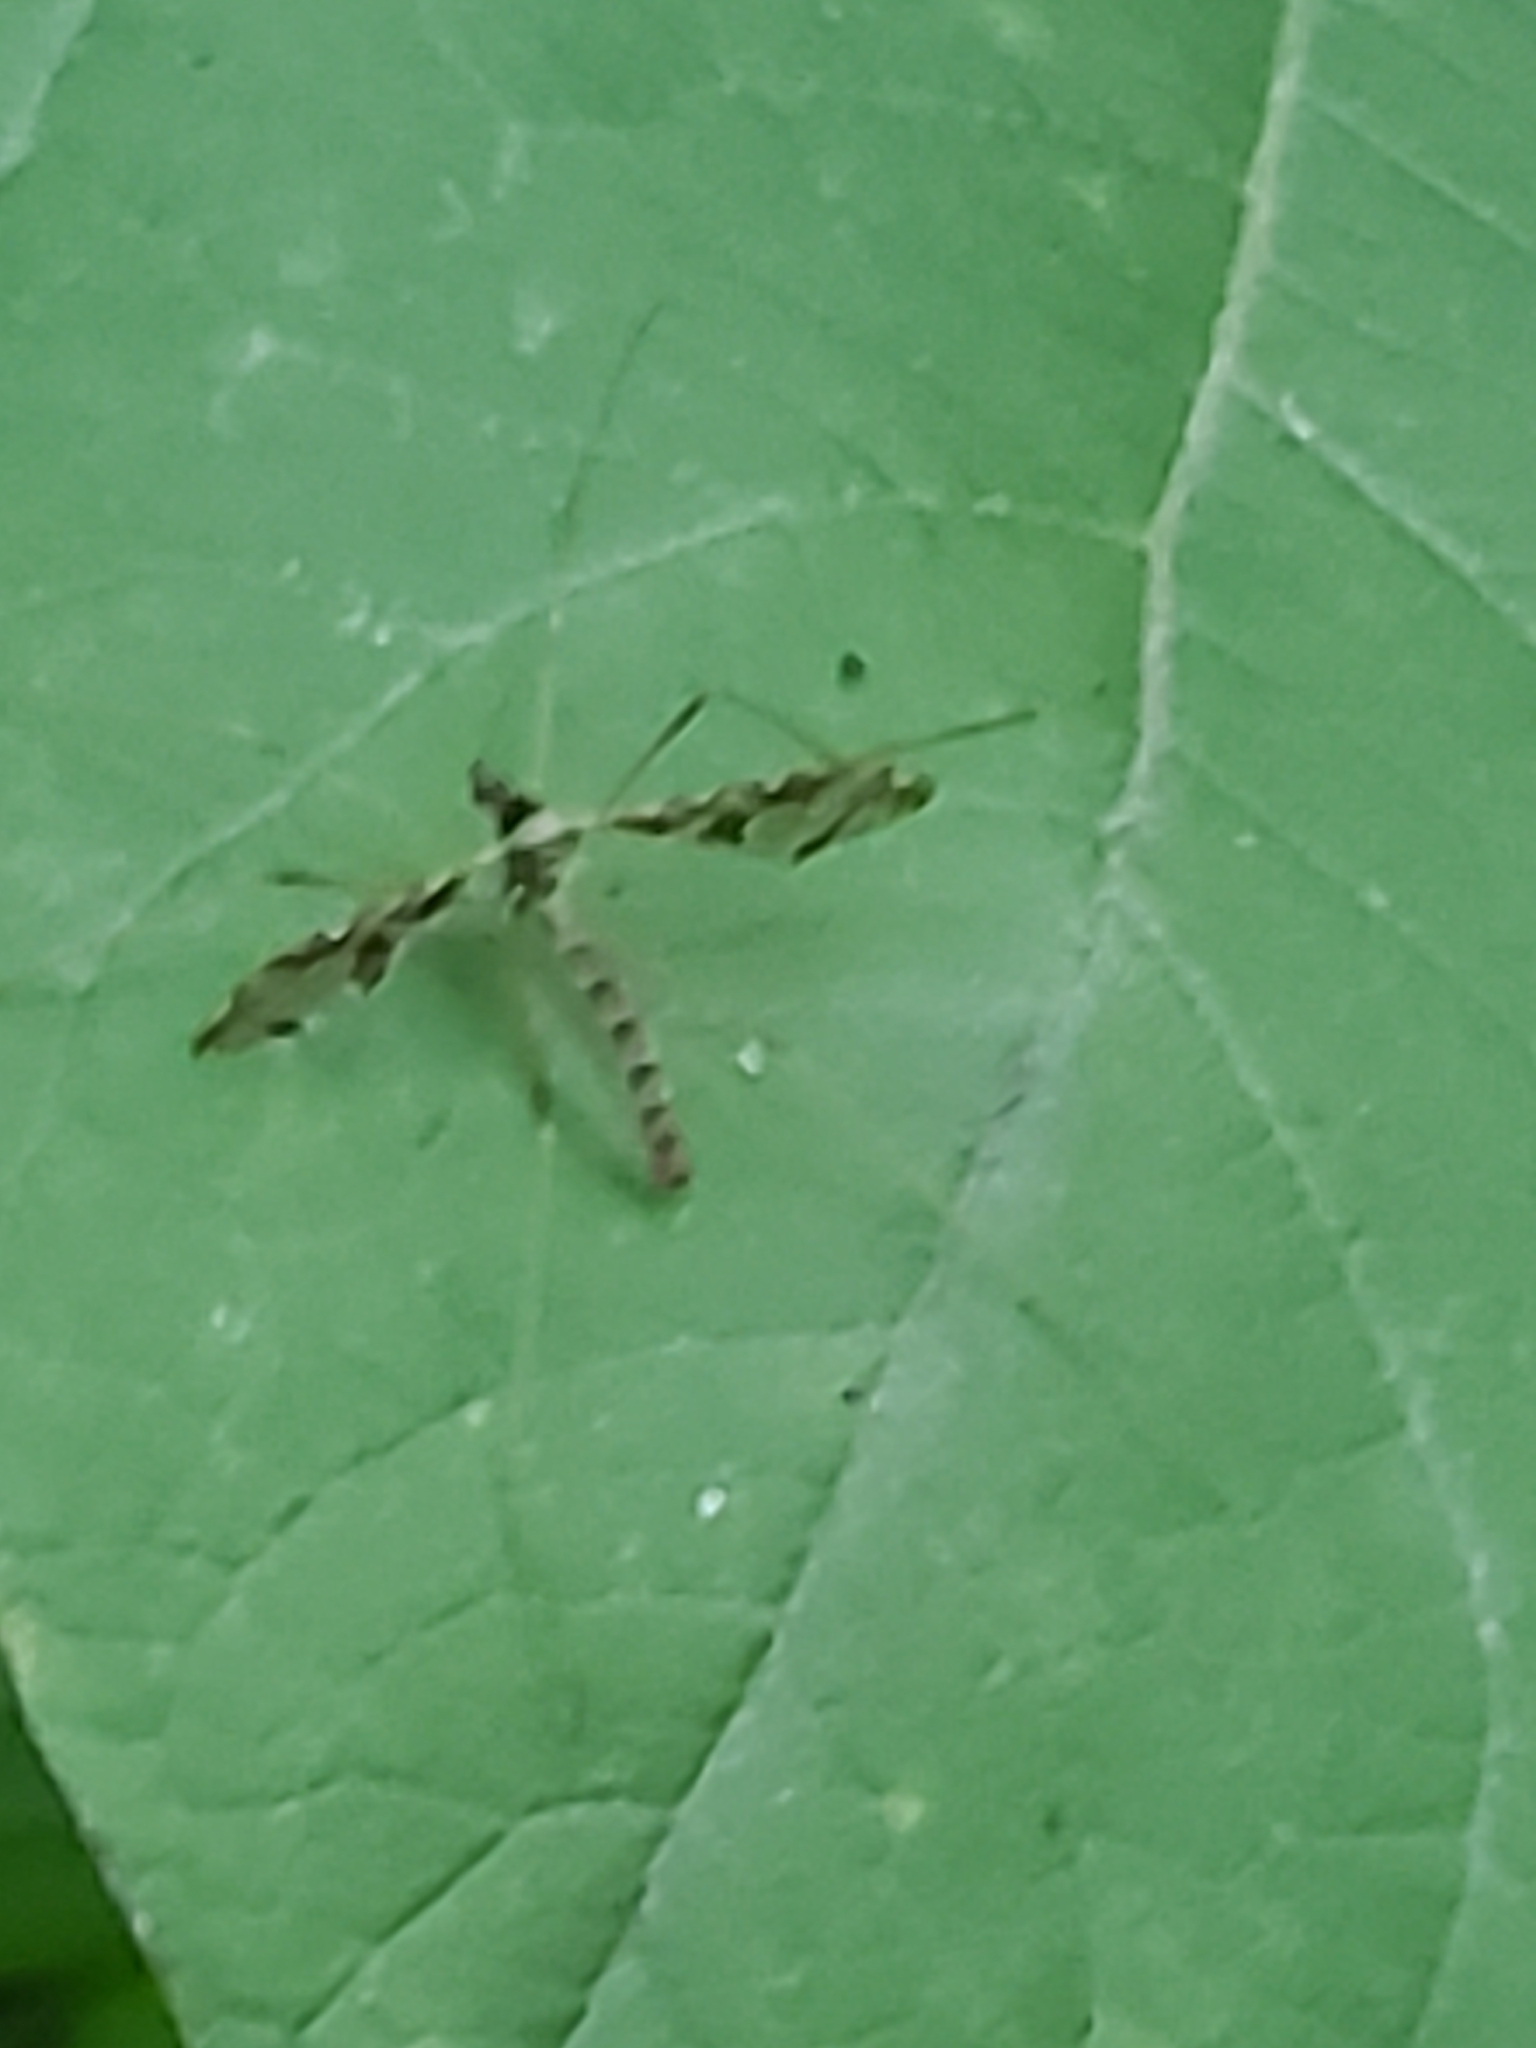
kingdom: Animalia
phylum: Arthropoda
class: Insecta
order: Diptera
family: Limoniidae
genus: Epiphragma
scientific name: Epiphragma solatrix
